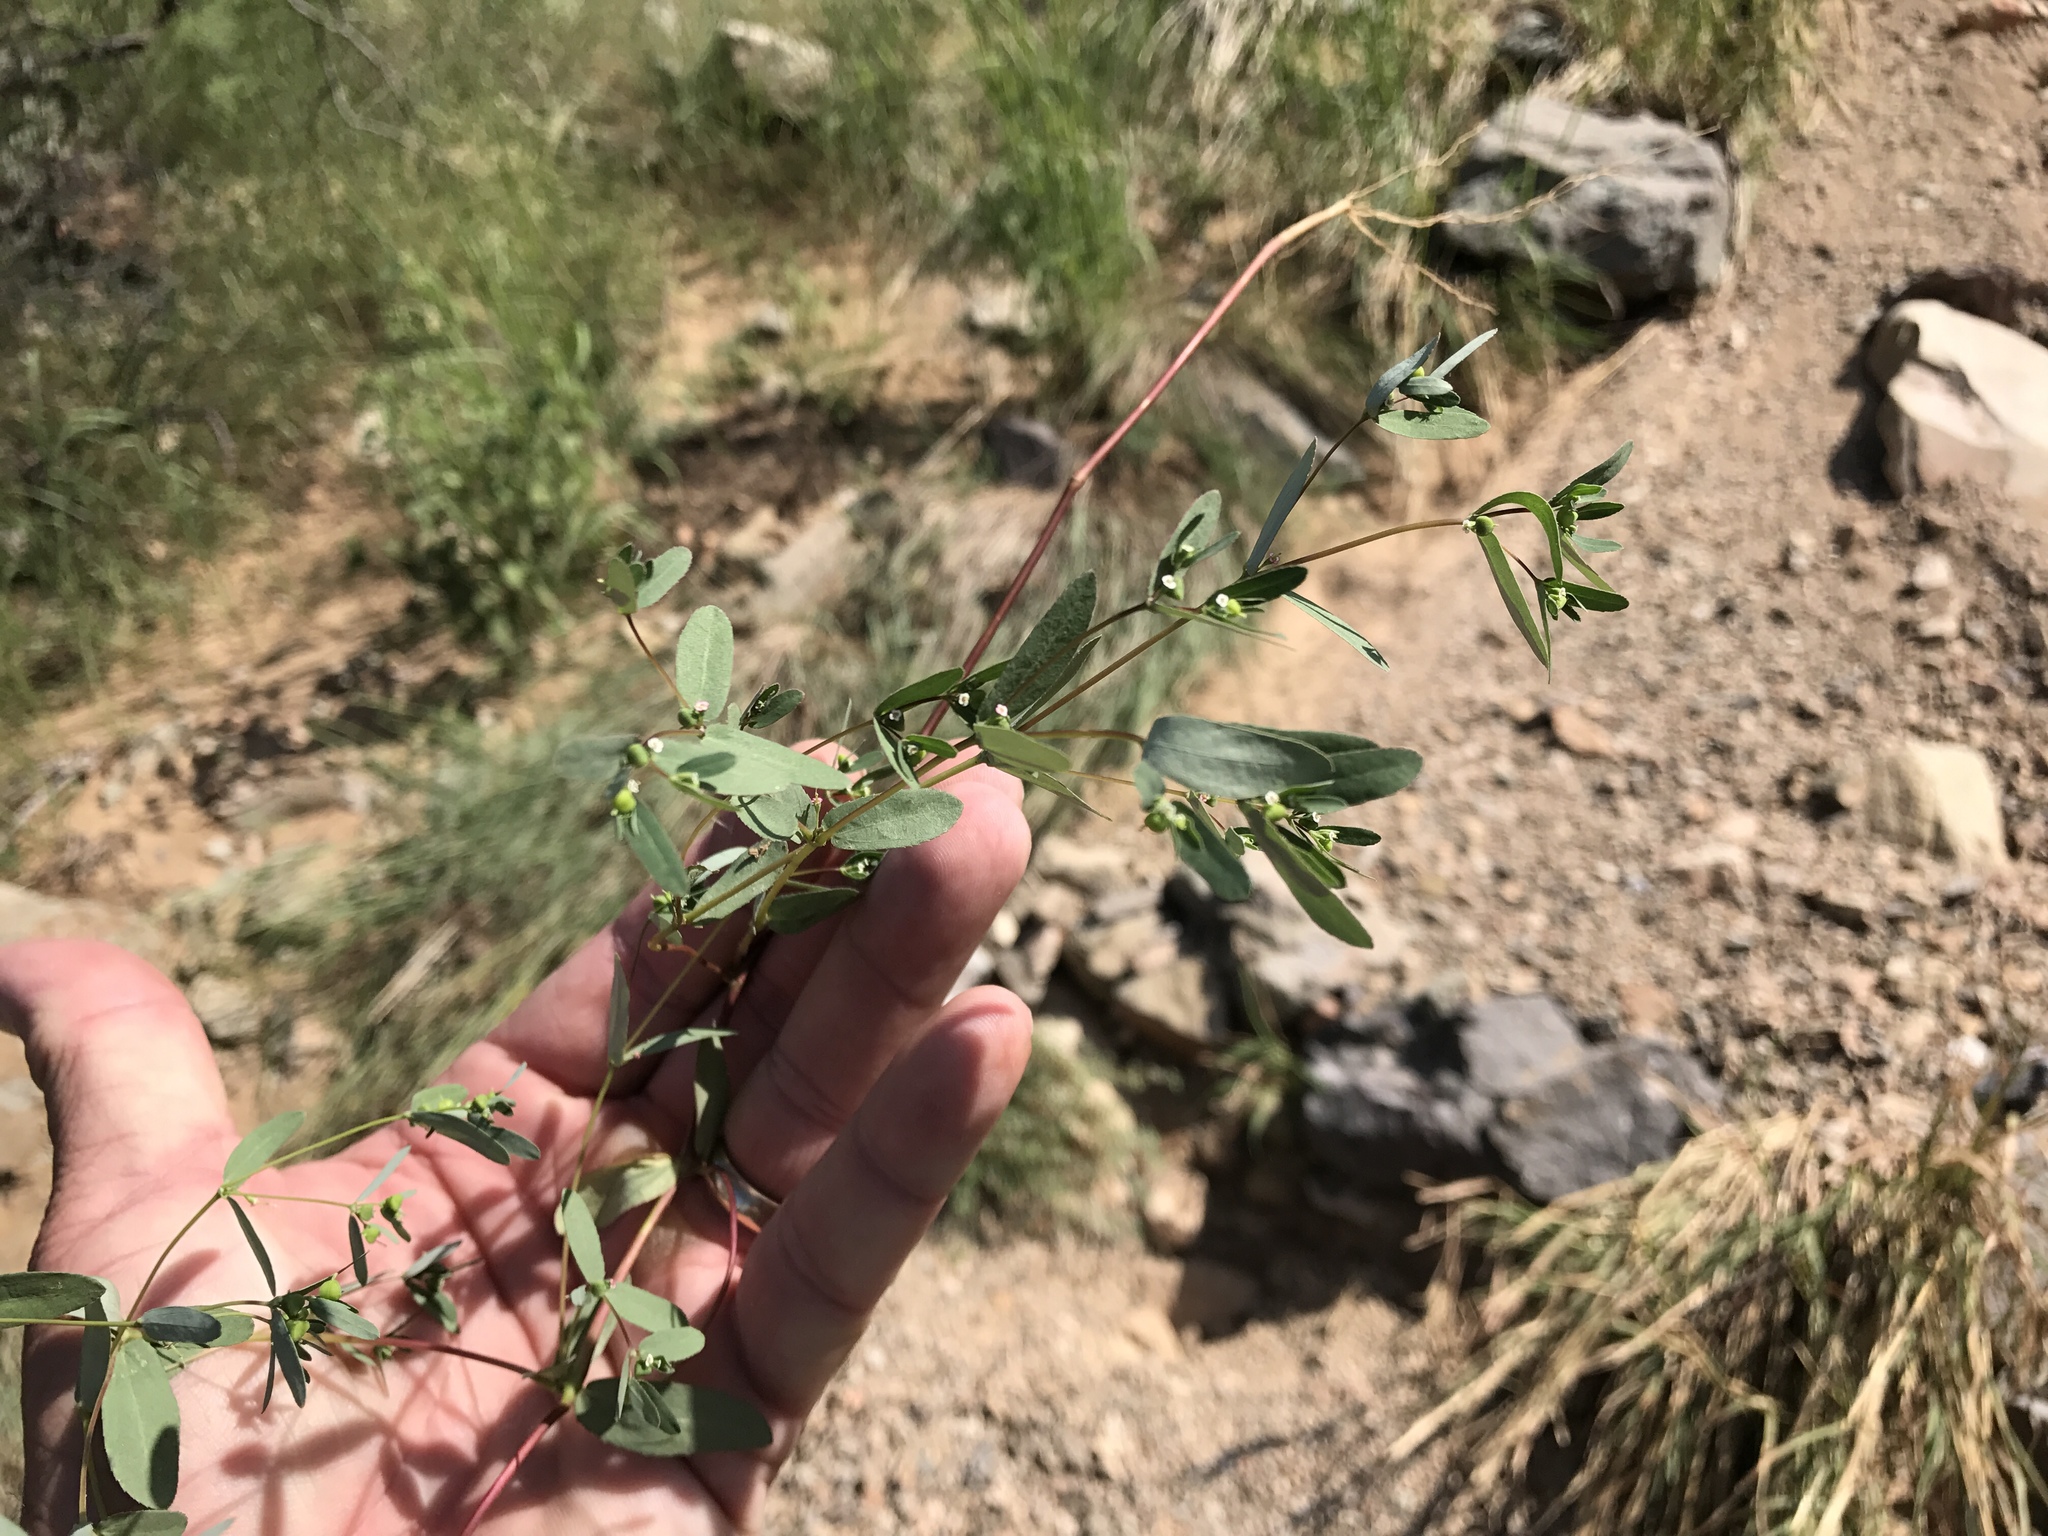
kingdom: Plantae
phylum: Tracheophyta
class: Magnoliopsida
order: Malpighiales
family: Euphorbiaceae
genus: Euphorbia
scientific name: Euphorbia hyssopifolia
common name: Hyssopleaf sandmat
